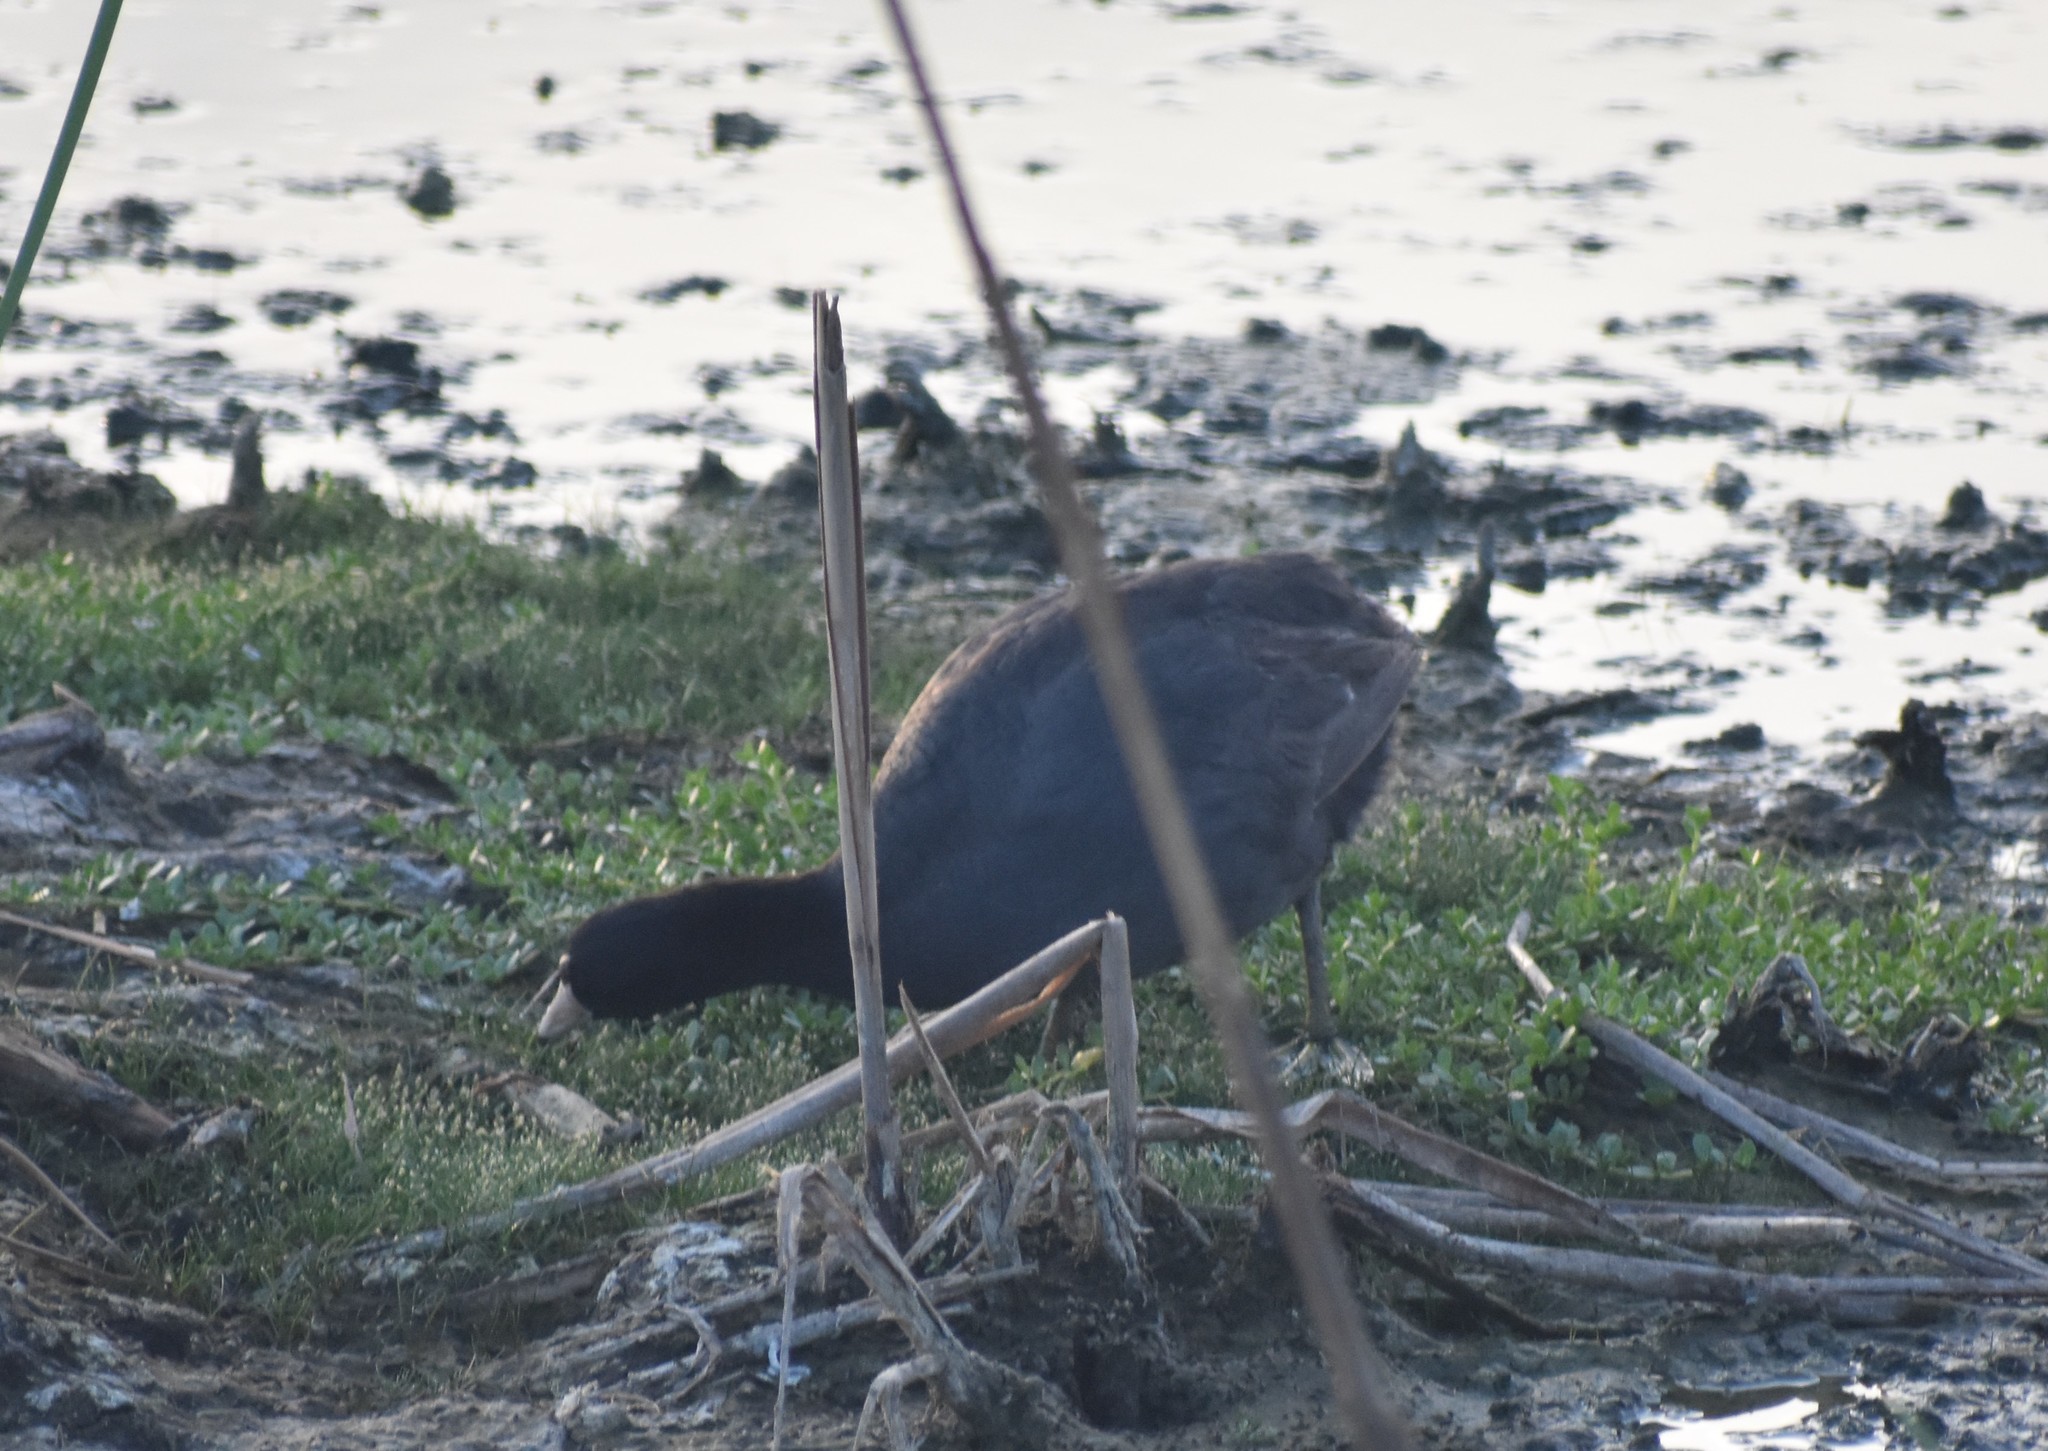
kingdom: Animalia
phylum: Chordata
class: Aves
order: Gruiformes
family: Rallidae
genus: Fulica
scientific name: Fulica americana
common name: American coot
